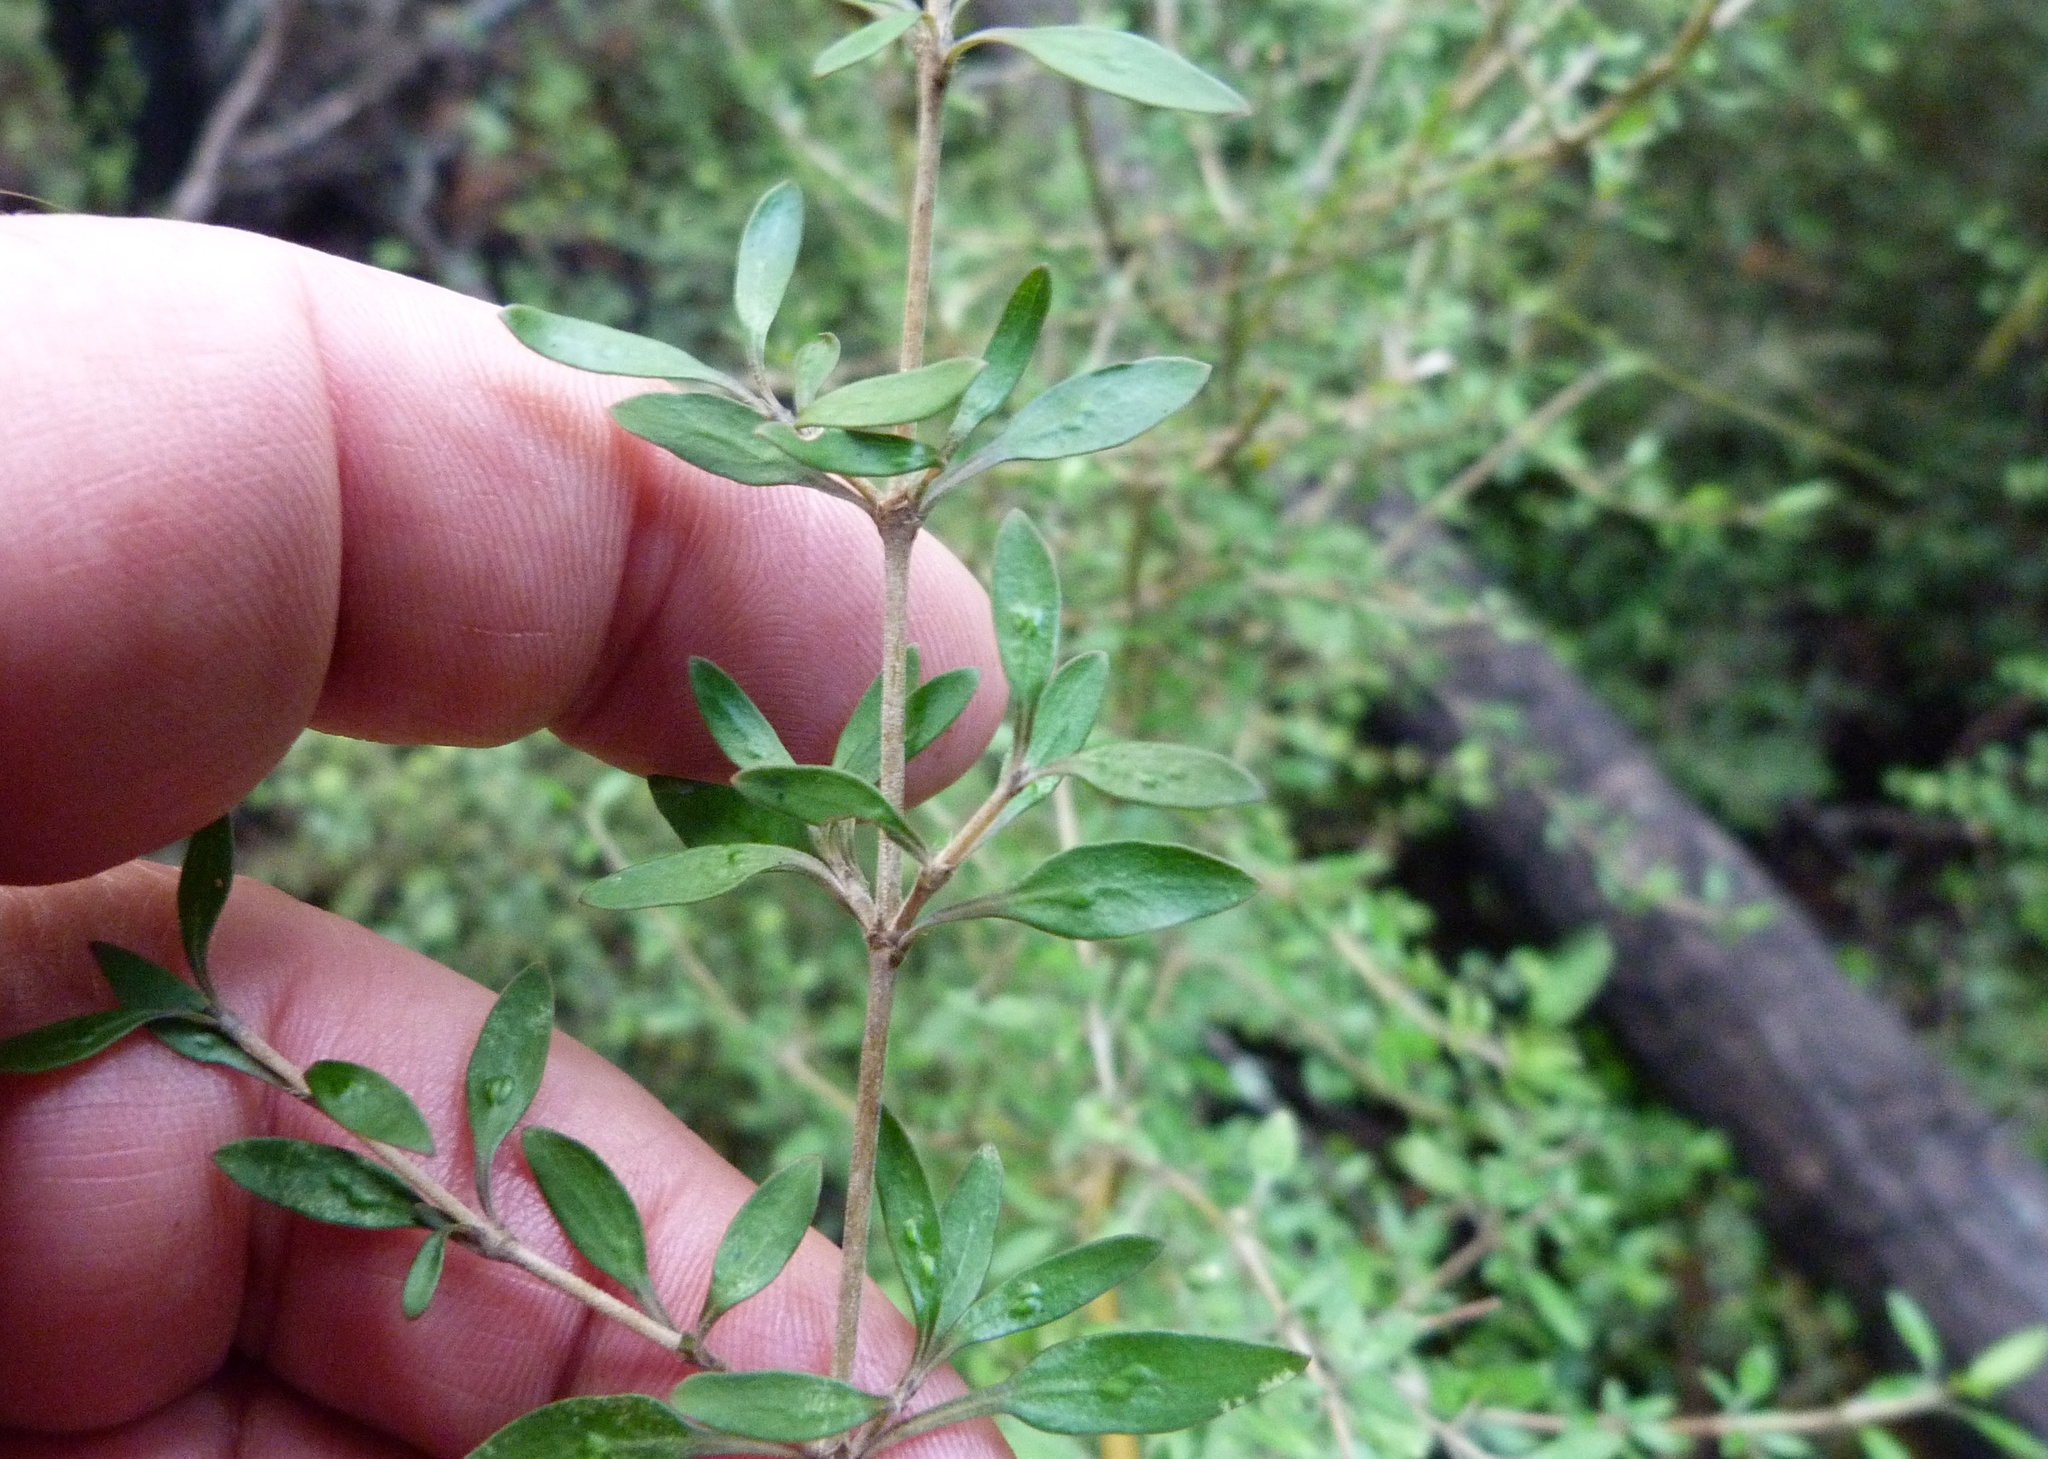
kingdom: Plantae
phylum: Tracheophyta
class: Magnoliopsida
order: Gentianales
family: Rubiaceae
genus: Coprosma
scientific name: Coprosma propinqua
